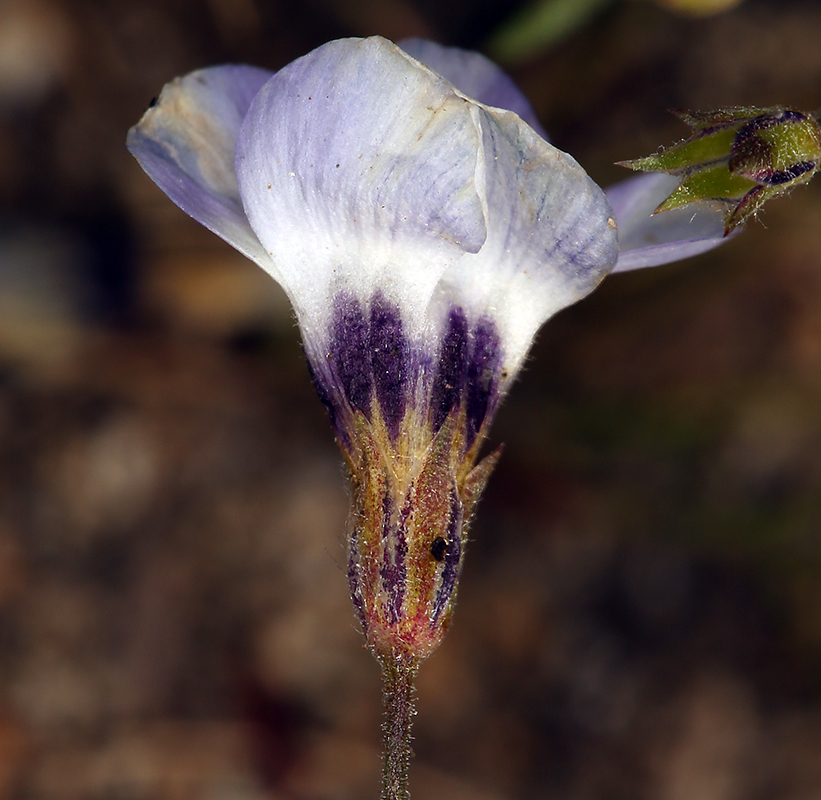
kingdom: Plantae
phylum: Tracheophyta
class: Magnoliopsida
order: Ericales
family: Polemoniaceae
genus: Gilia
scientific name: Gilia tricolor
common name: Bird's-eyes
